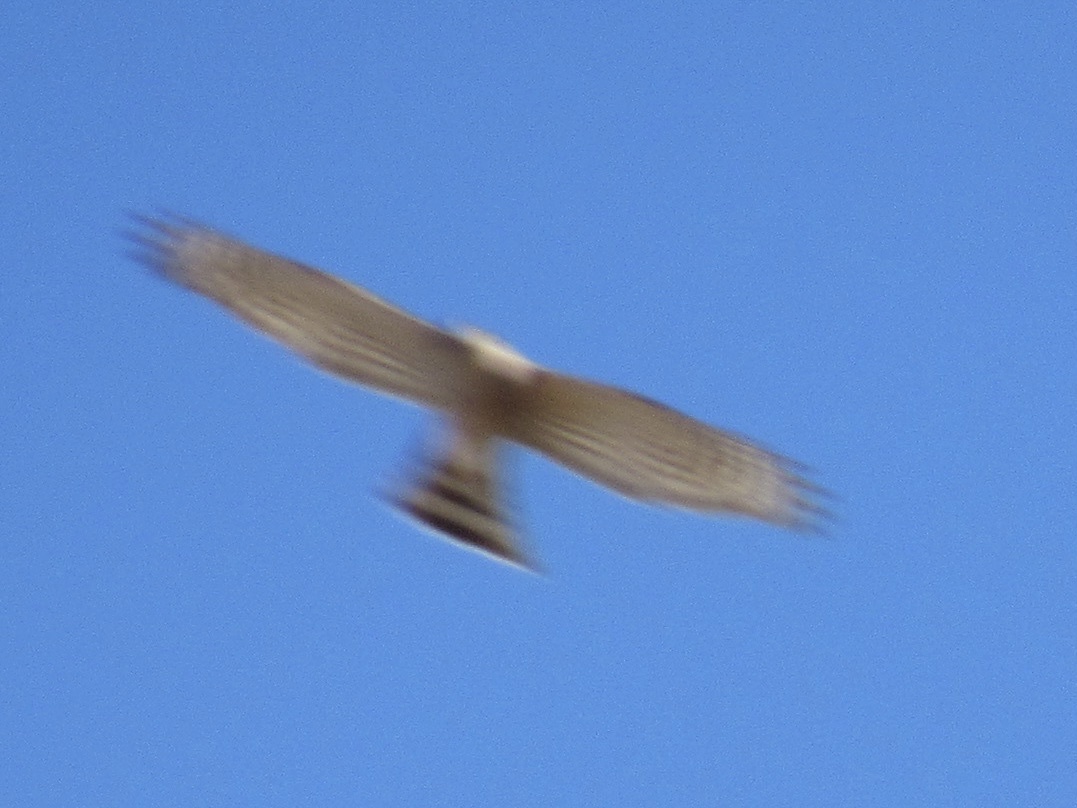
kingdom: Animalia
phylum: Chordata
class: Aves
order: Accipitriformes
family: Accipitridae
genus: Accipiter
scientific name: Accipiter striatus
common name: Sharp-shinned hawk
